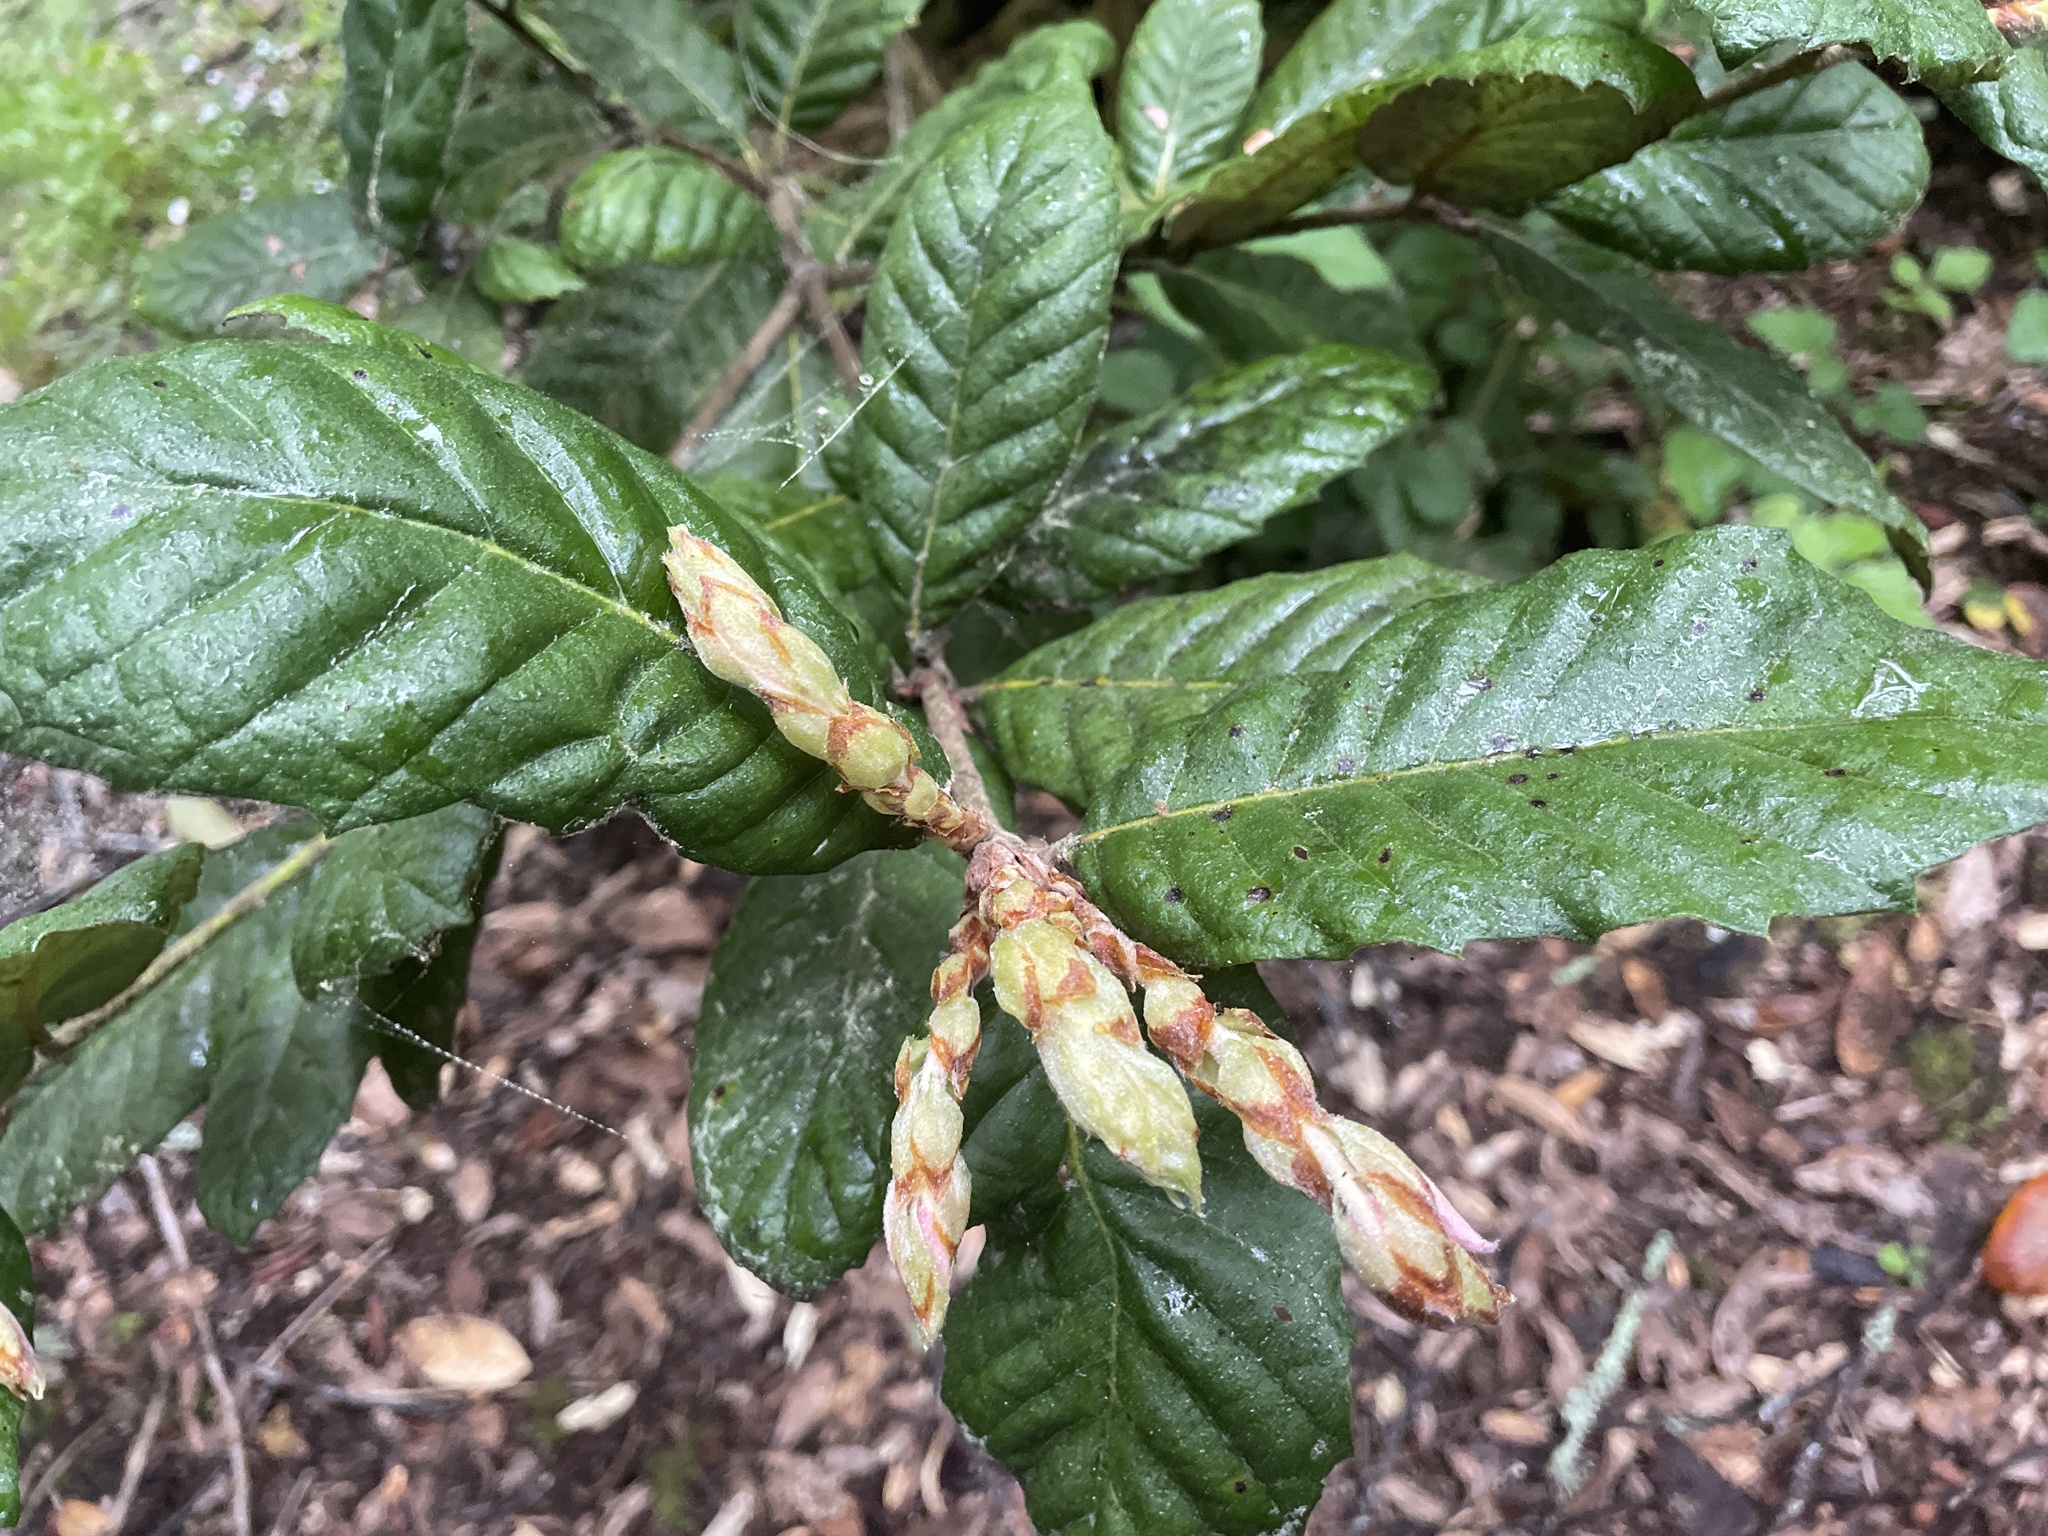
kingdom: Plantae
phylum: Tracheophyta
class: Magnoliopsida
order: Fagales
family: Fagaceae
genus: Notholithocarpus
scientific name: Notholithocarpus densiflorus
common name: Tan bark oak
